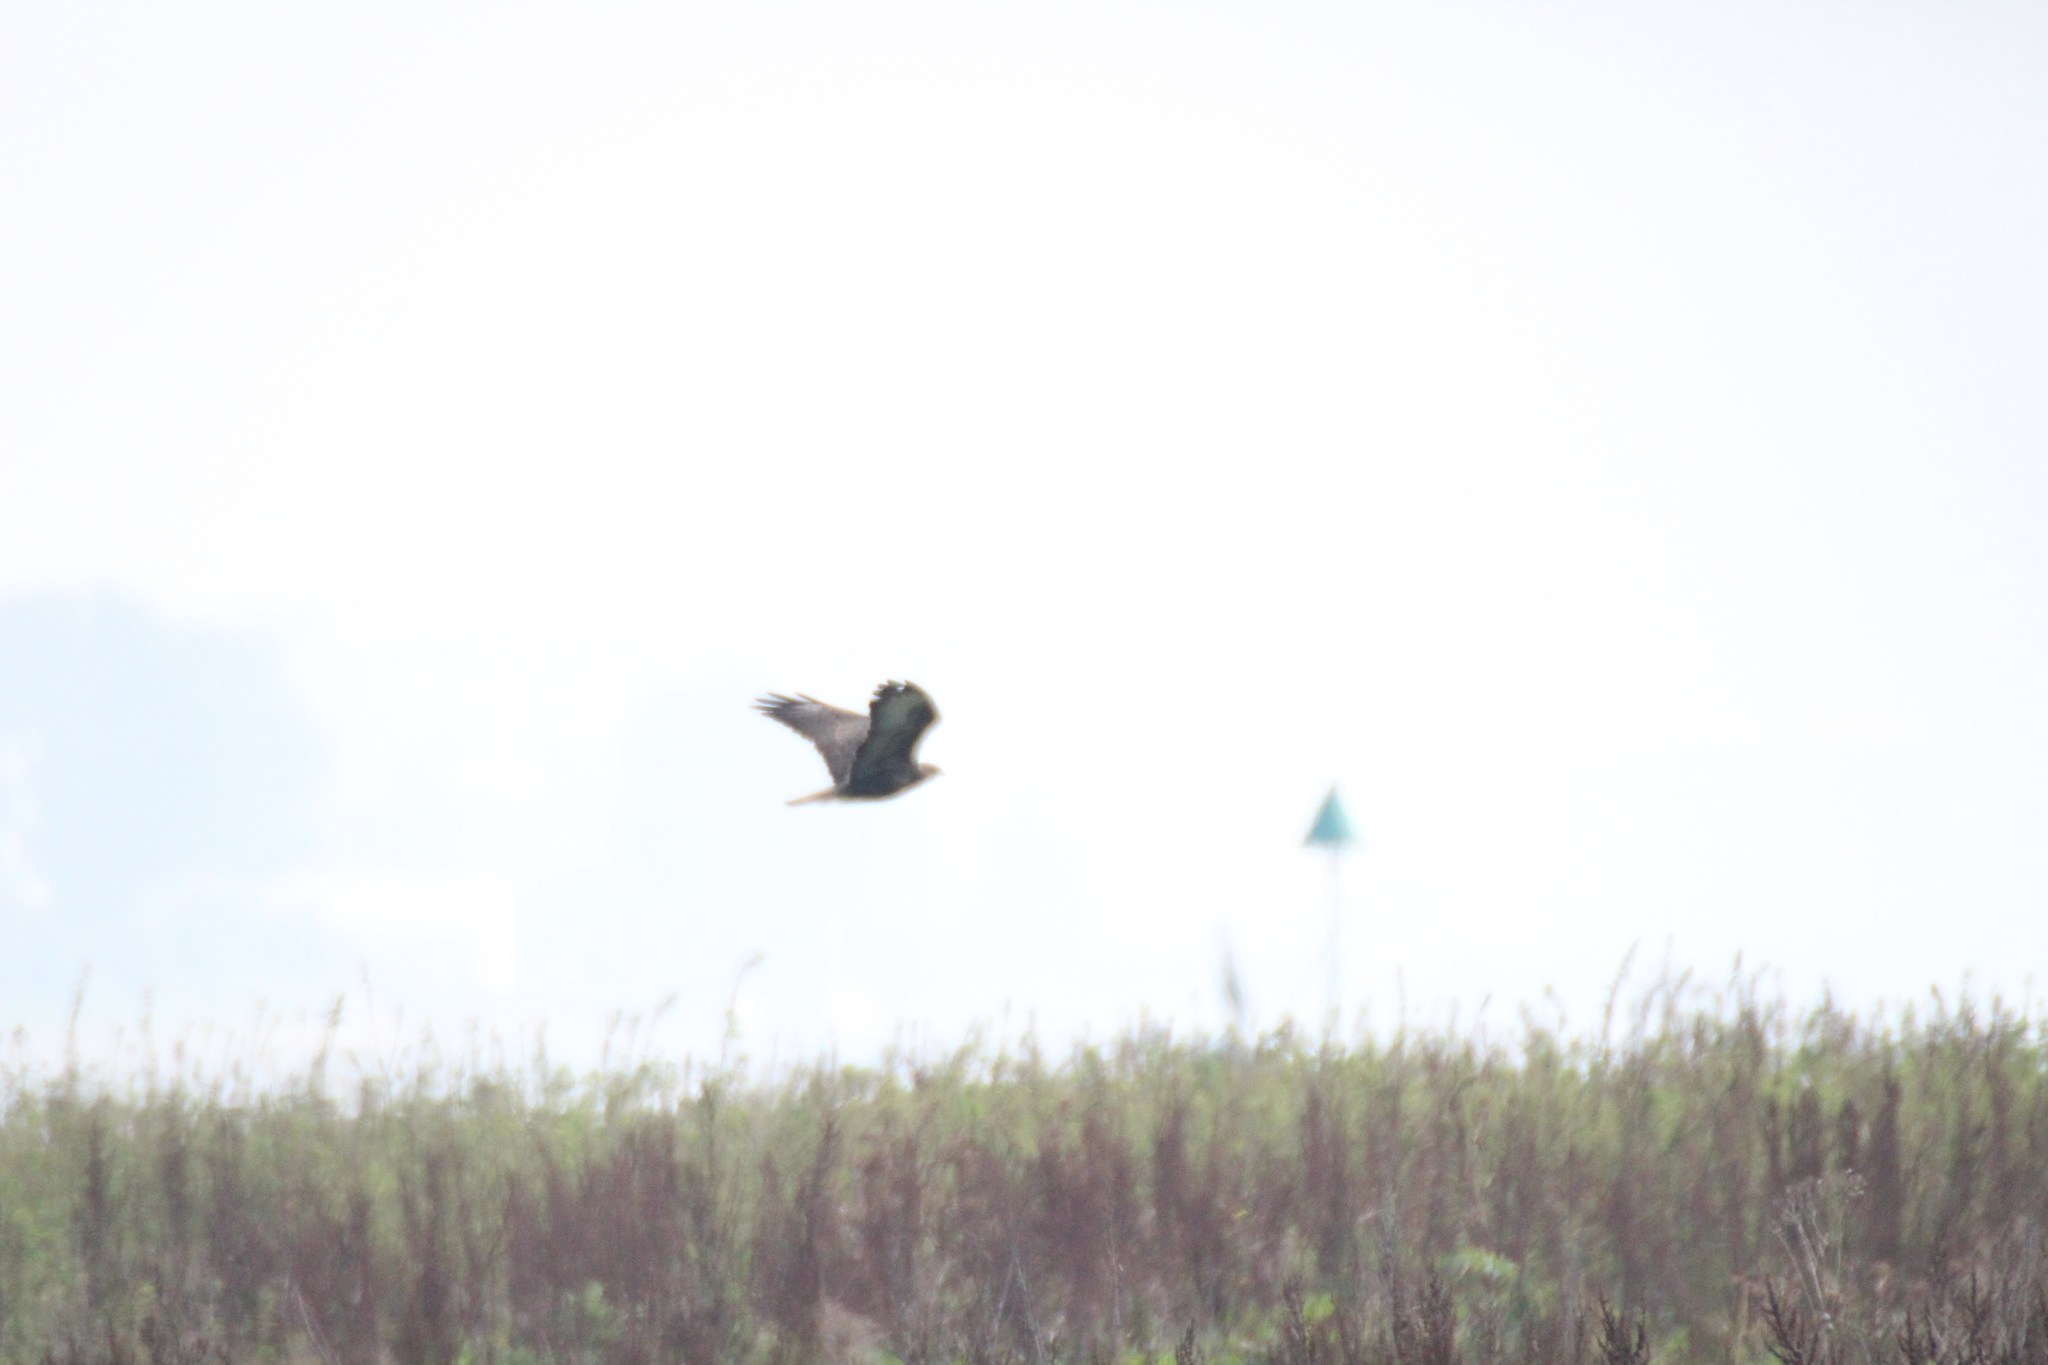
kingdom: Animalia
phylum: Chordata
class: Aves
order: Accipitriformes
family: Accipitridae
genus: Buteo
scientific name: Buteo buteo
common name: Common buzzard
